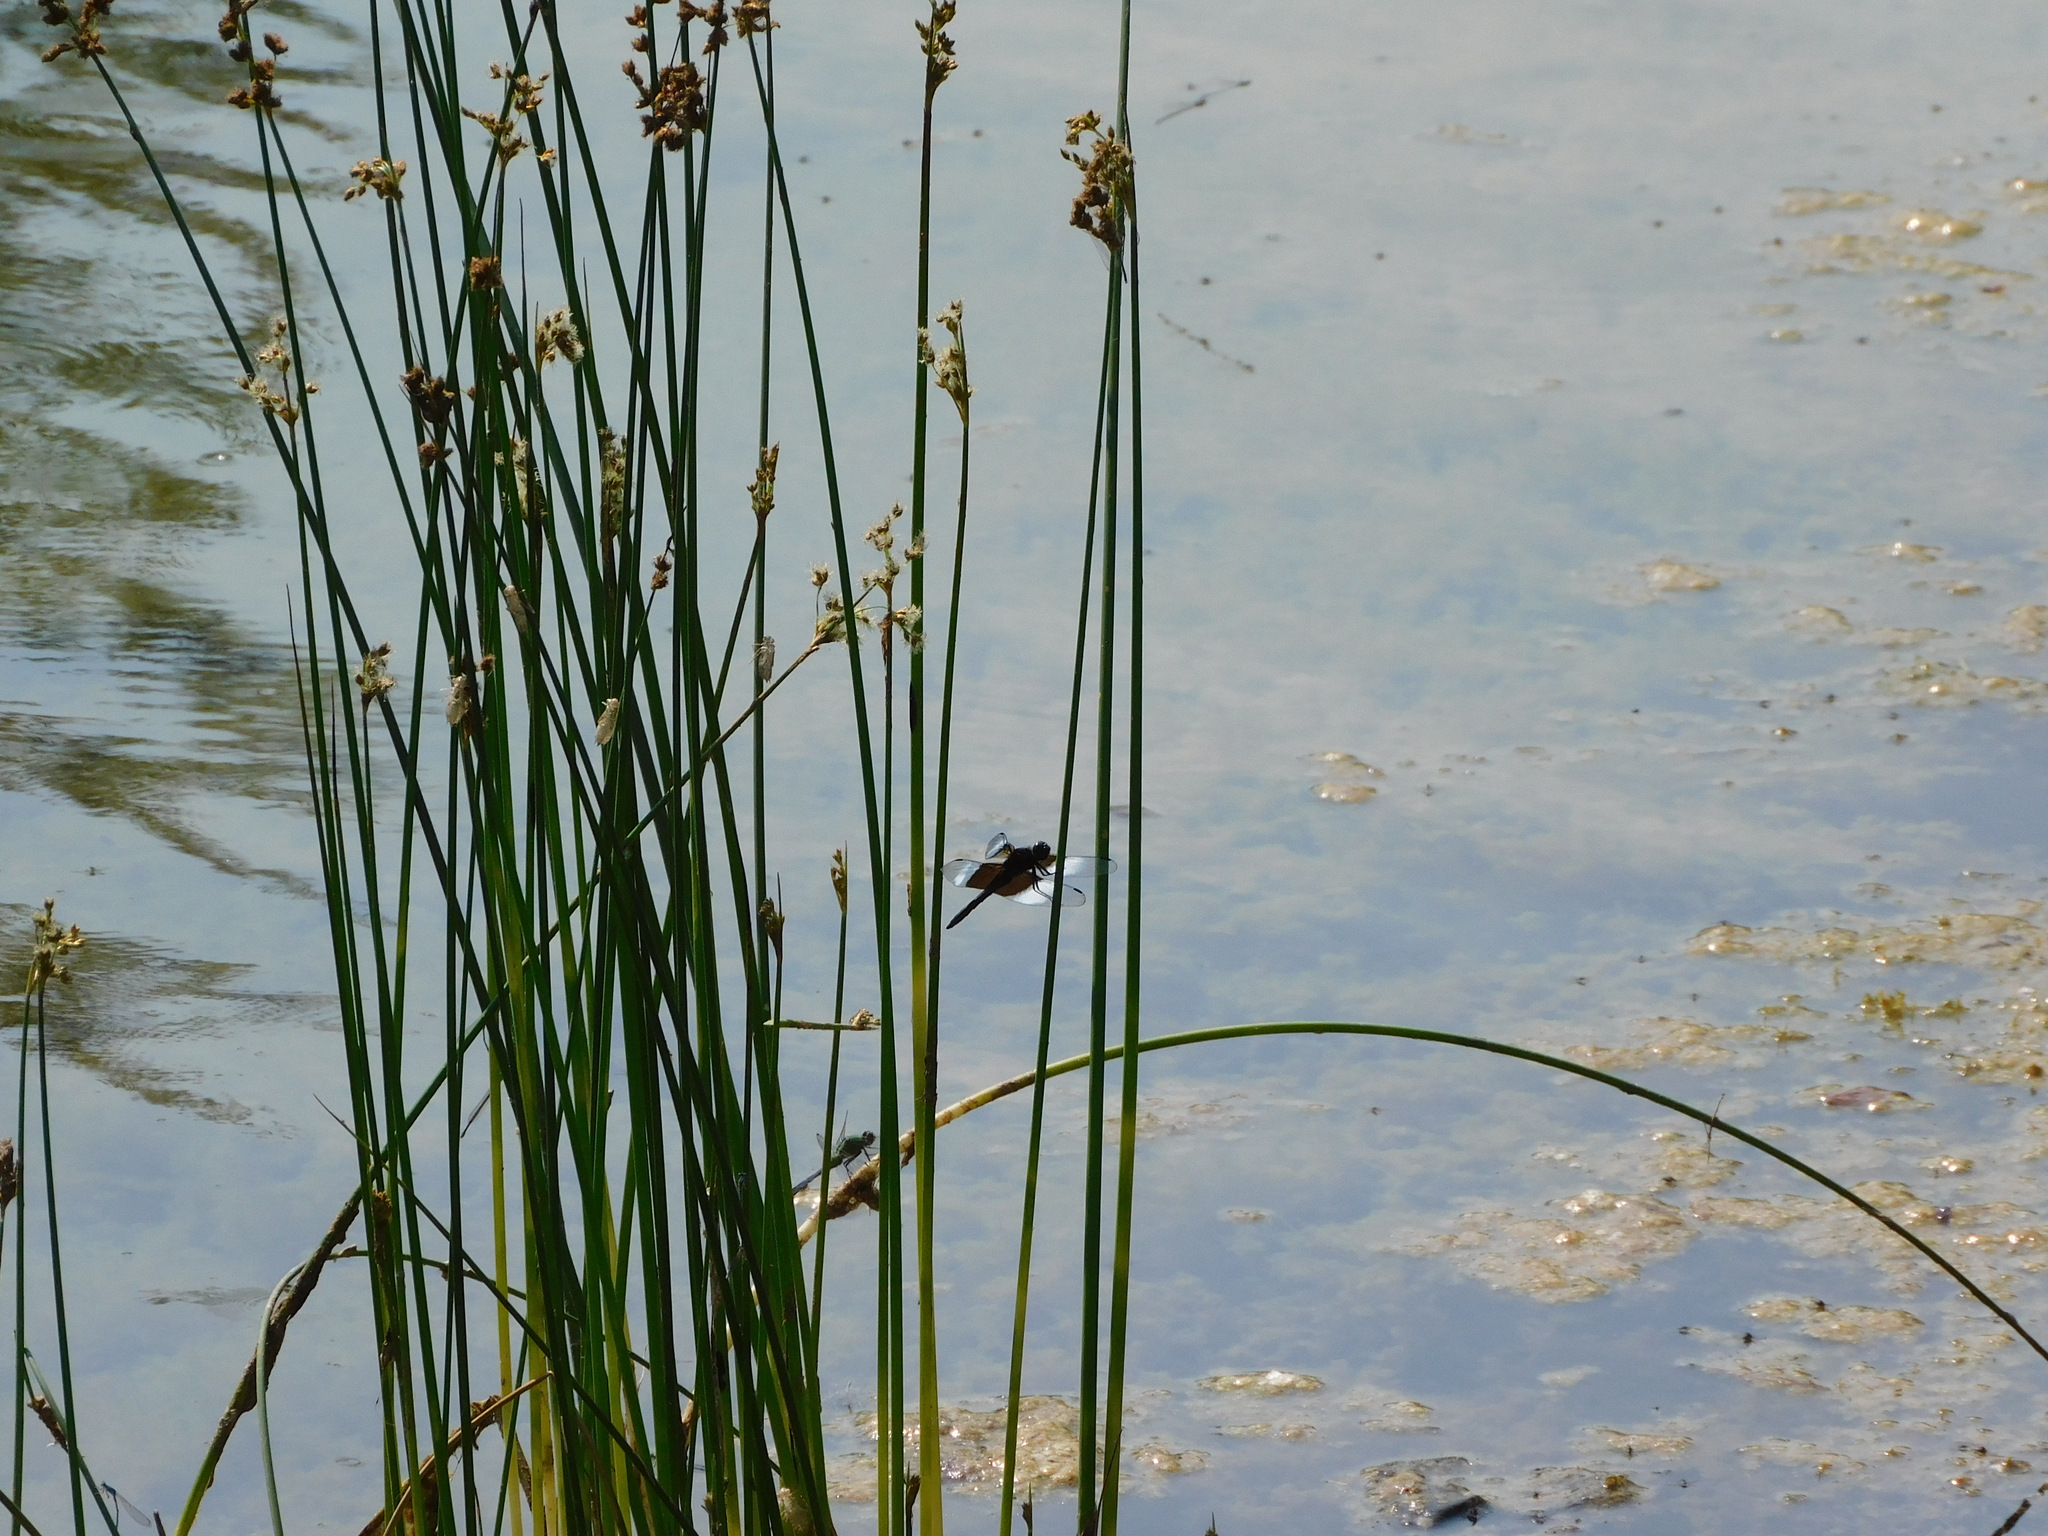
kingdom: Animalia
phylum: Arthropoda
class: Insecta
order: Odonata
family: Libellulidae
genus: Libellula
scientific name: Libellula luctuosa
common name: Widow skimmer
